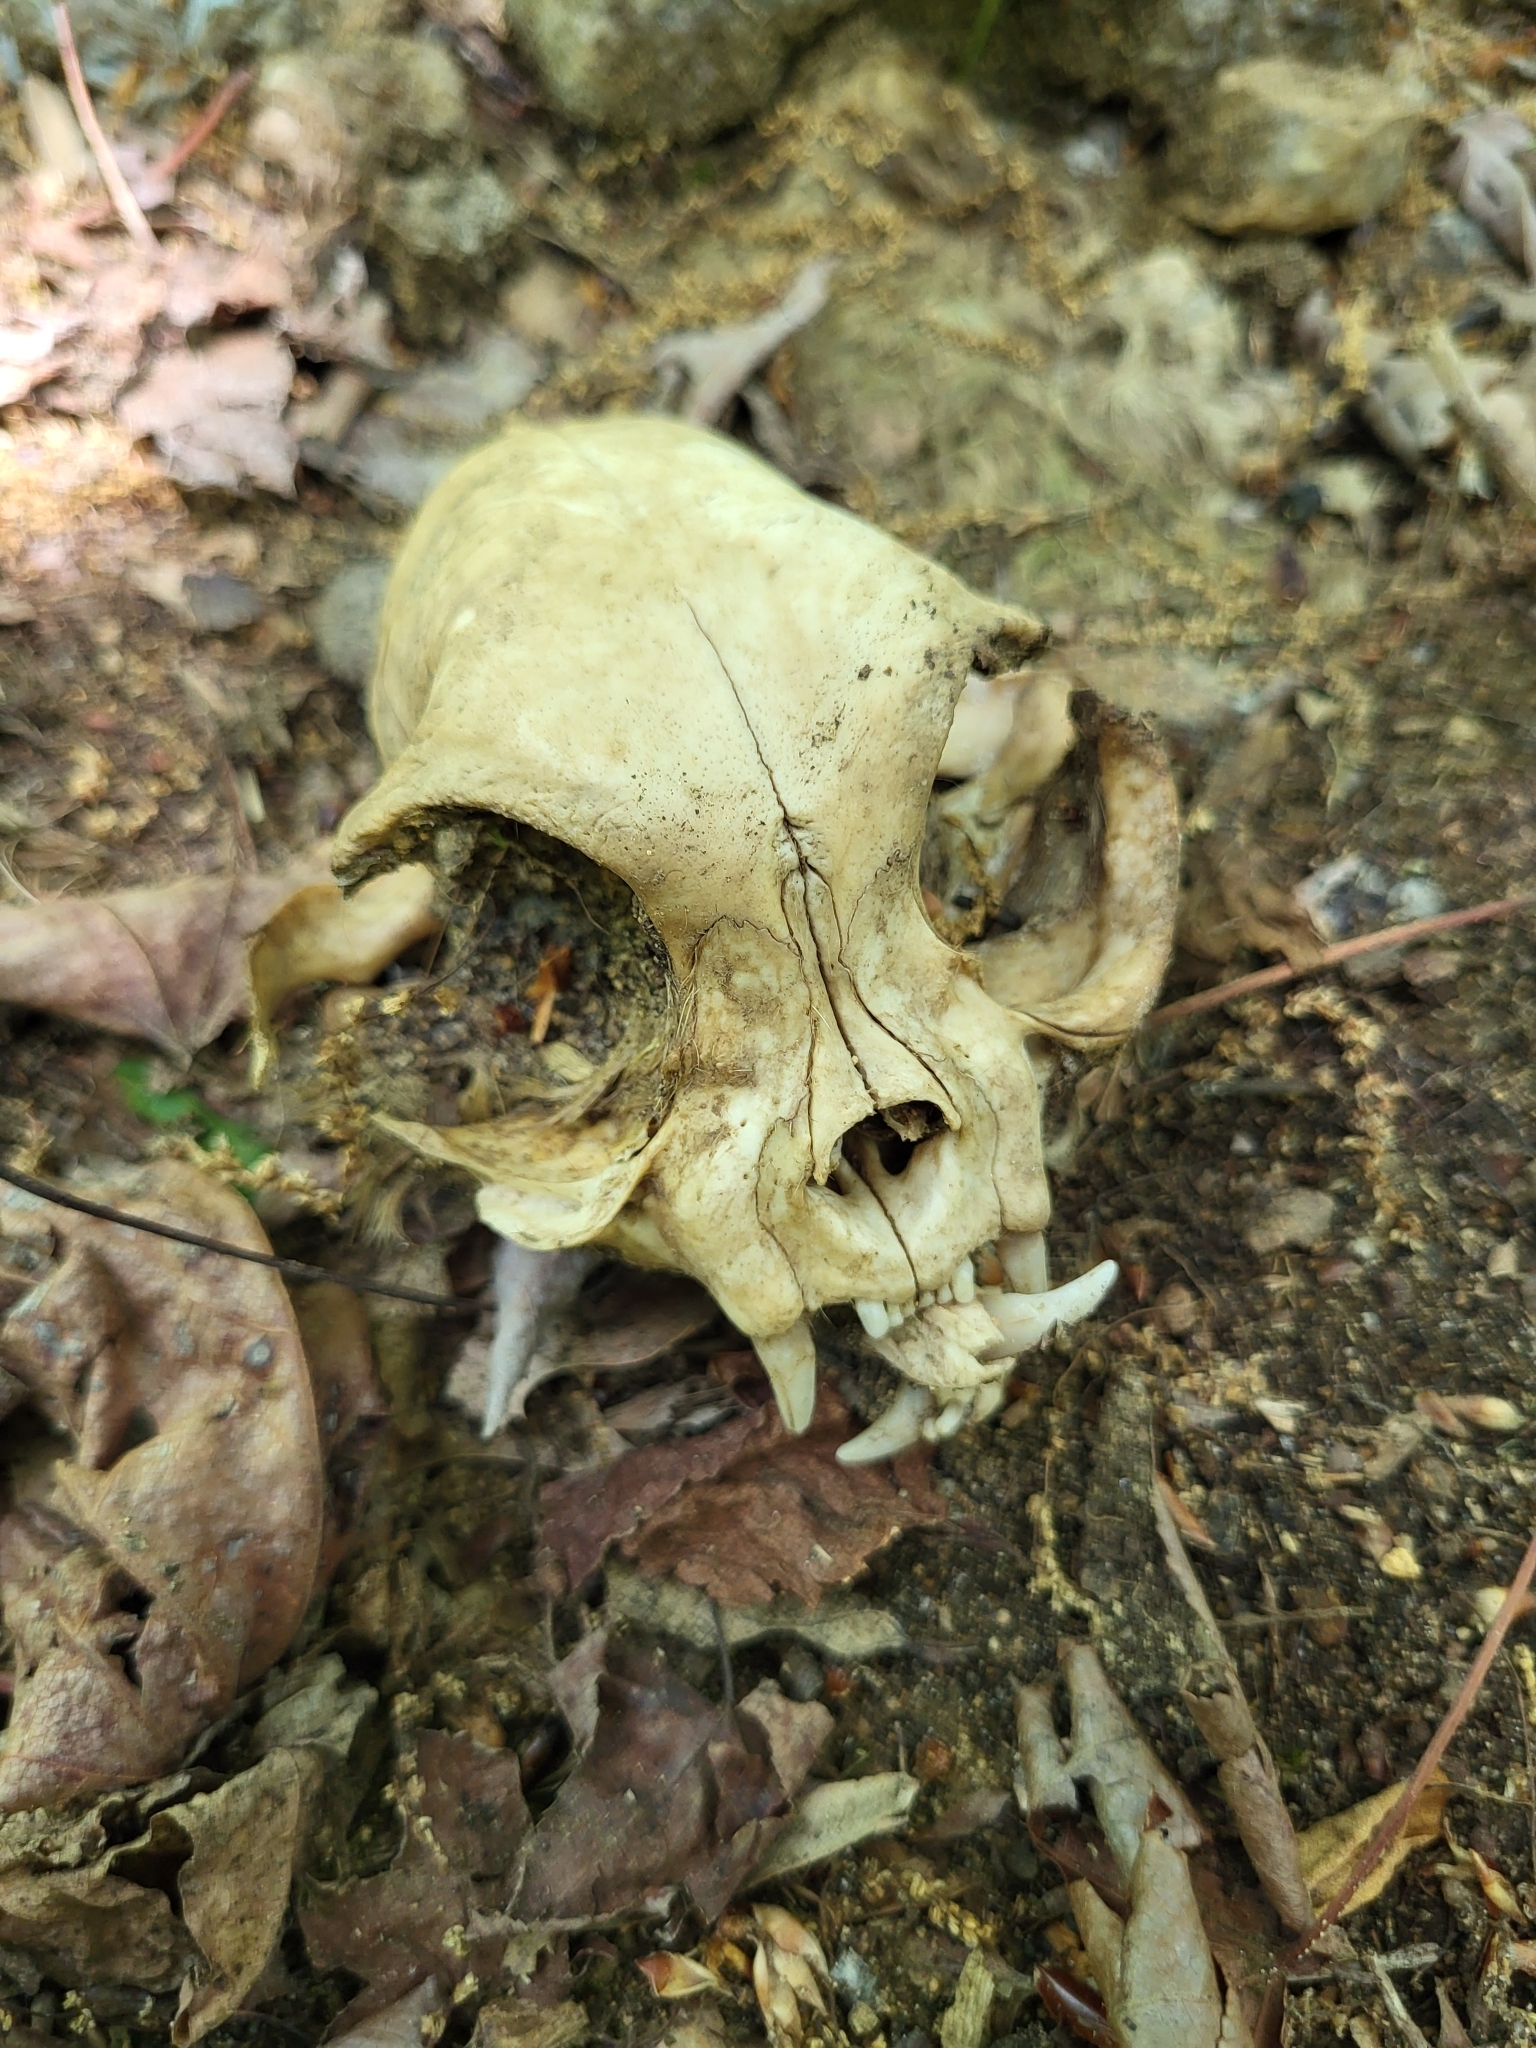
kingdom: Animalia
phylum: Chordata
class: Mammalia
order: Carnivora
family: Felidae
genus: Felis
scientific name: Felis catus
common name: Domestic cat
